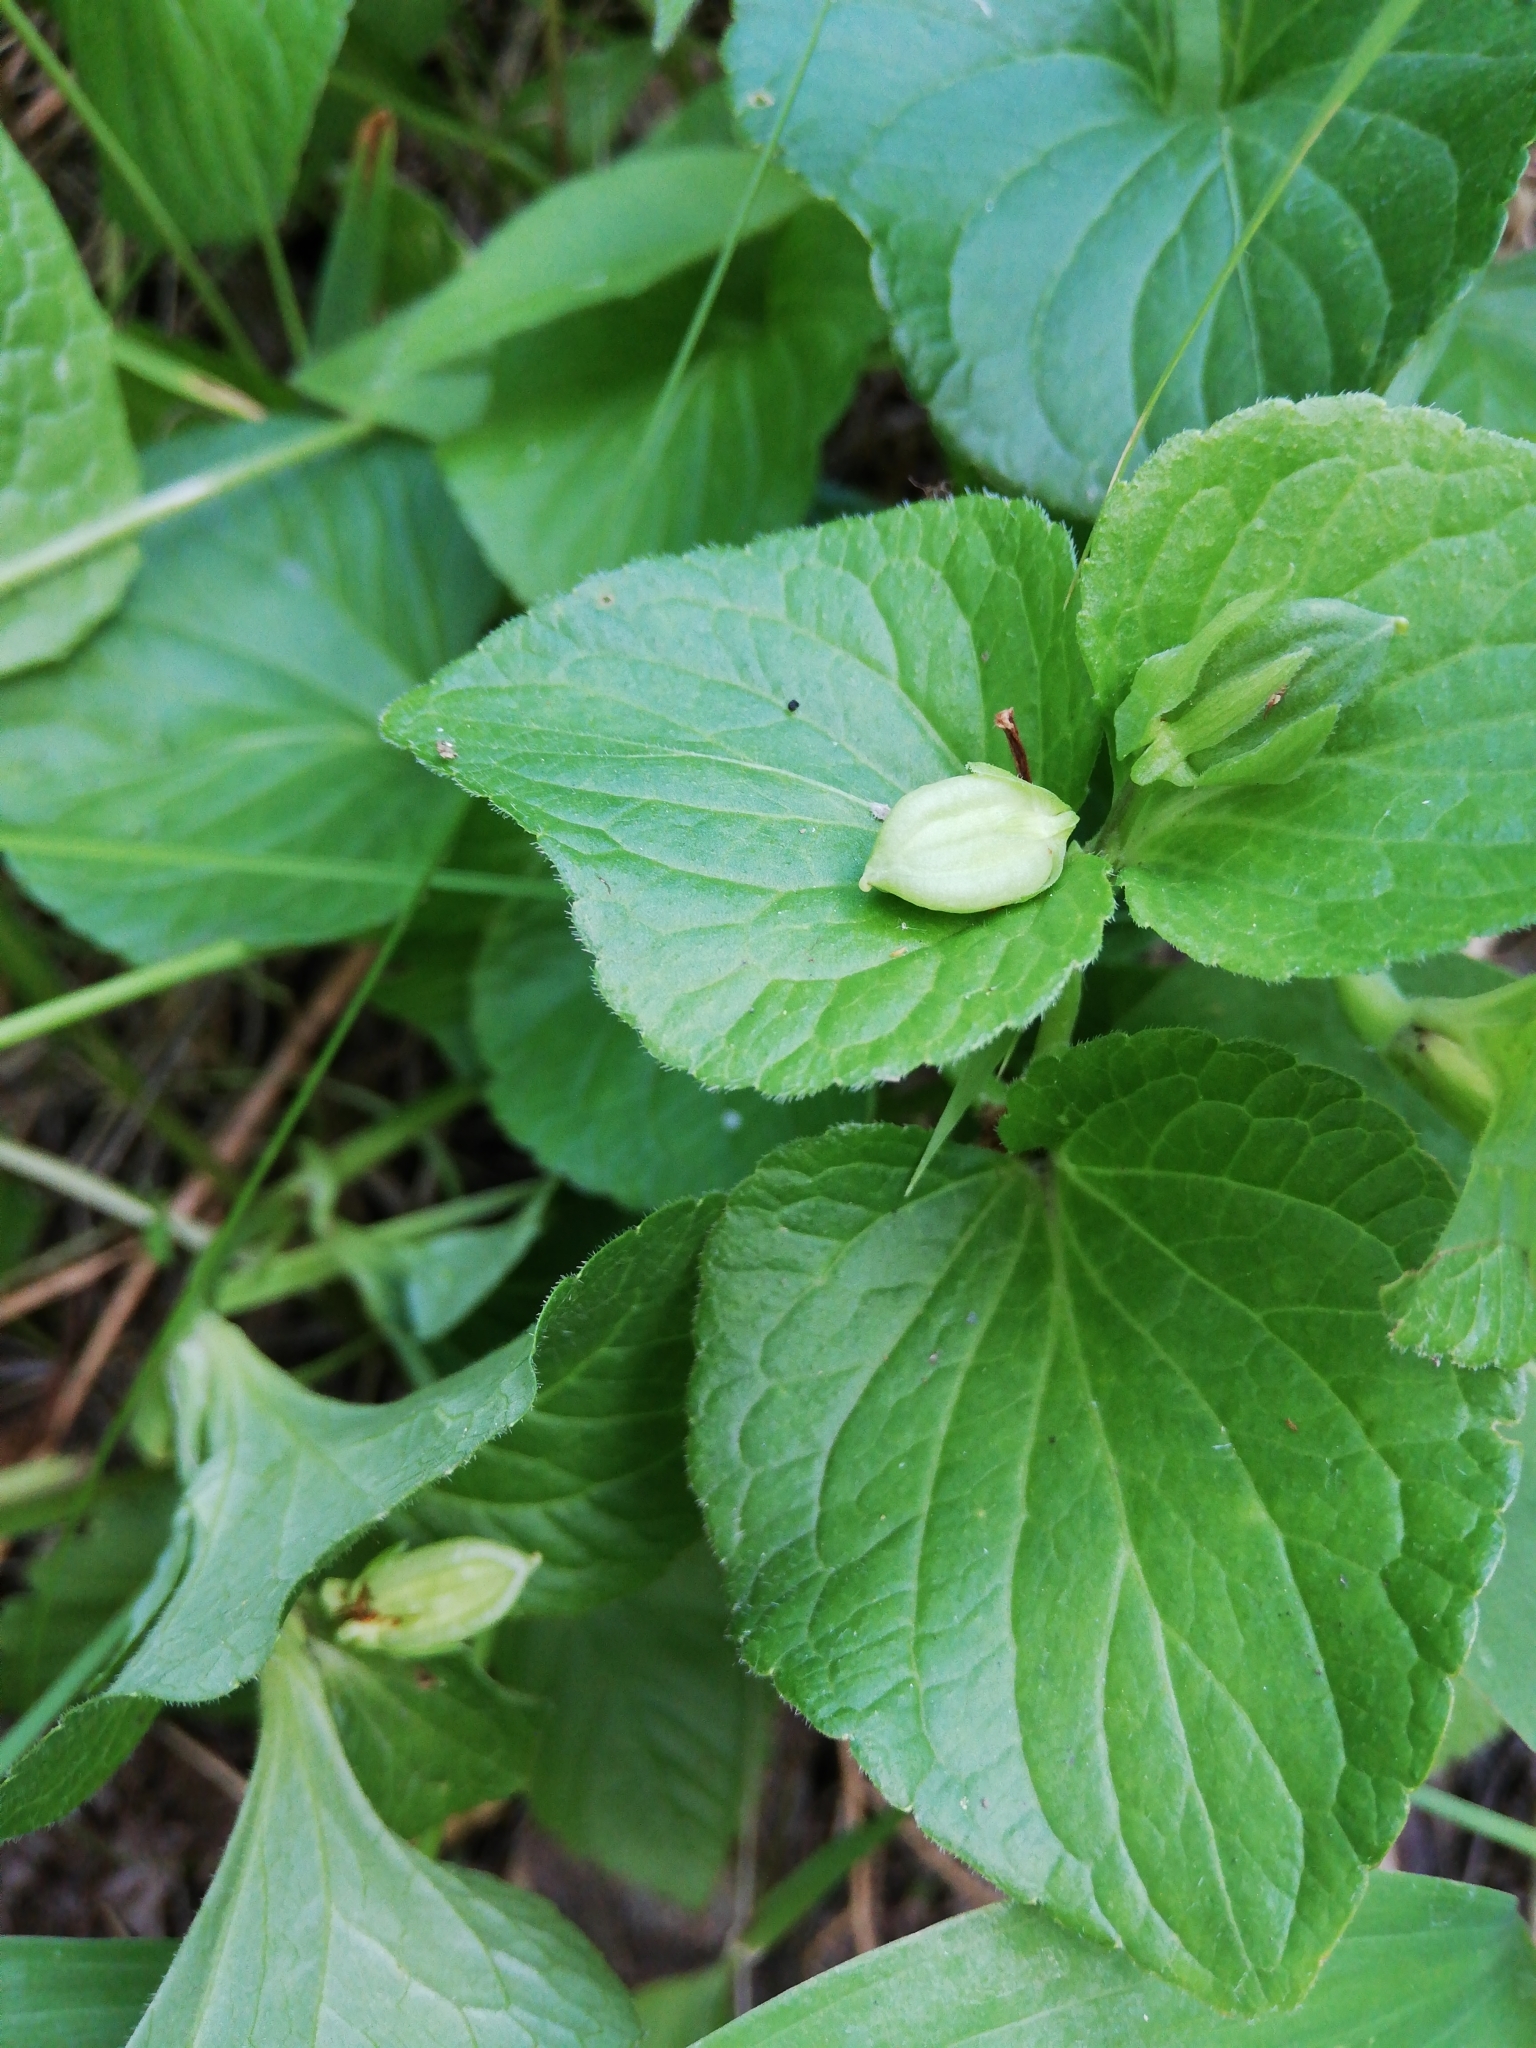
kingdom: Plantae
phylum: Tracheophyta
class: Magnoliopsida
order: Malpighiales
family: Violaceae
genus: Viola
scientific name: Viola mirabilis
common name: Wonder violet
